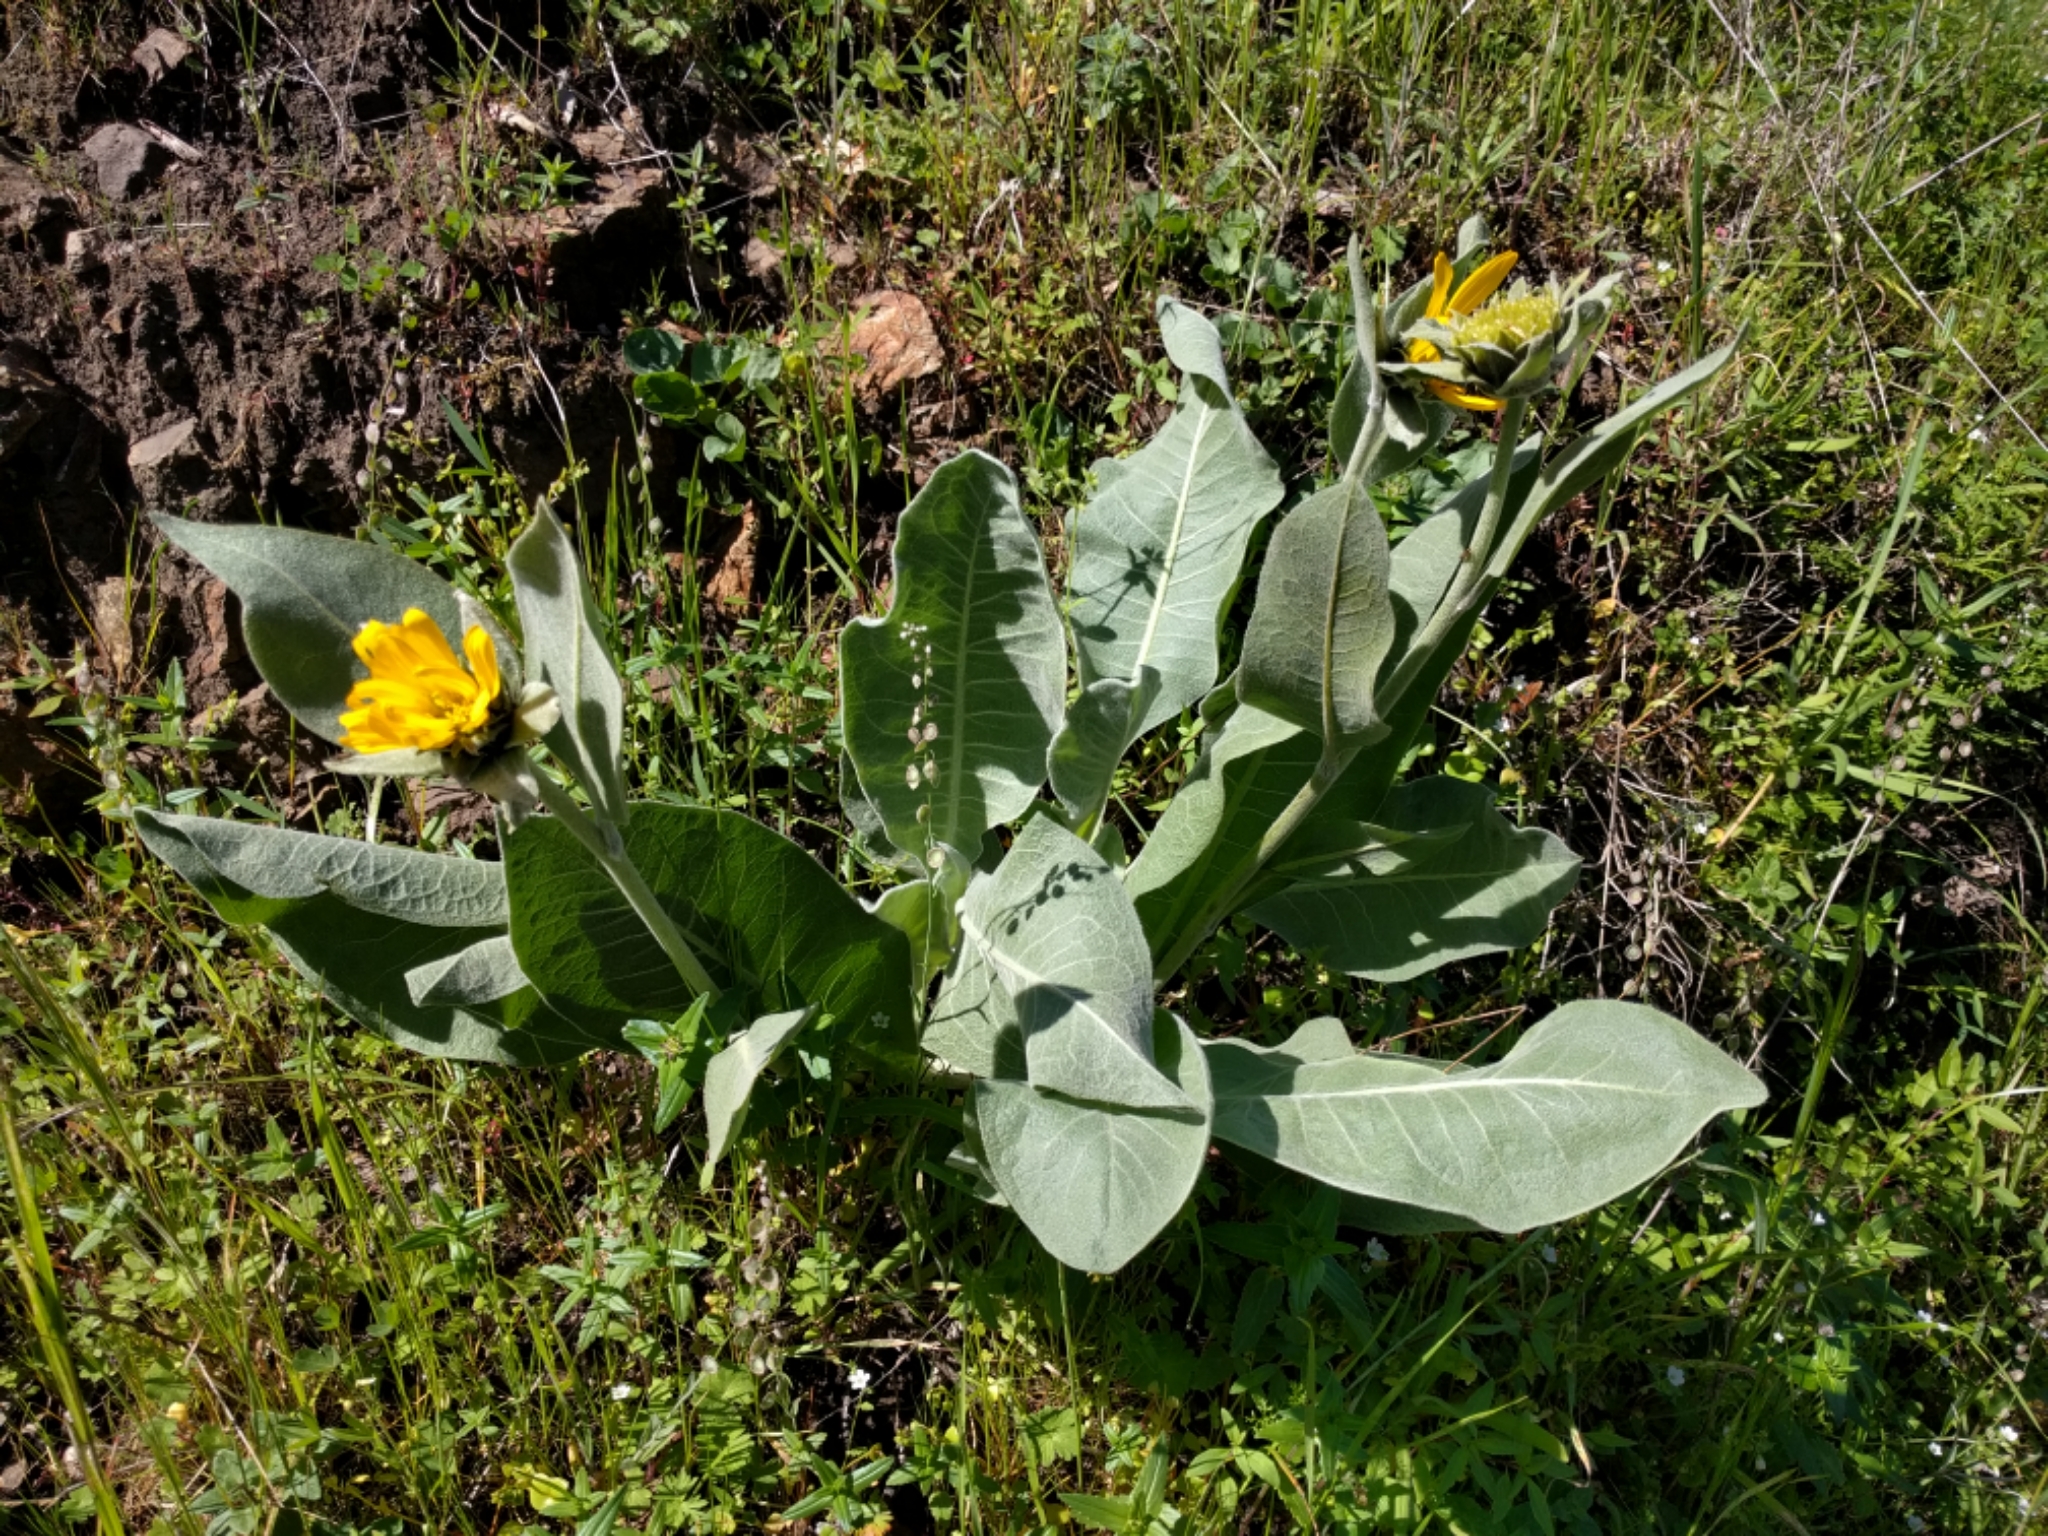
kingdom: Plantae
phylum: Tracheophyta
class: Magnoliopsida
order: Asterales
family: Asteraceae
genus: Wyethia
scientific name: Wyethia helenioides
